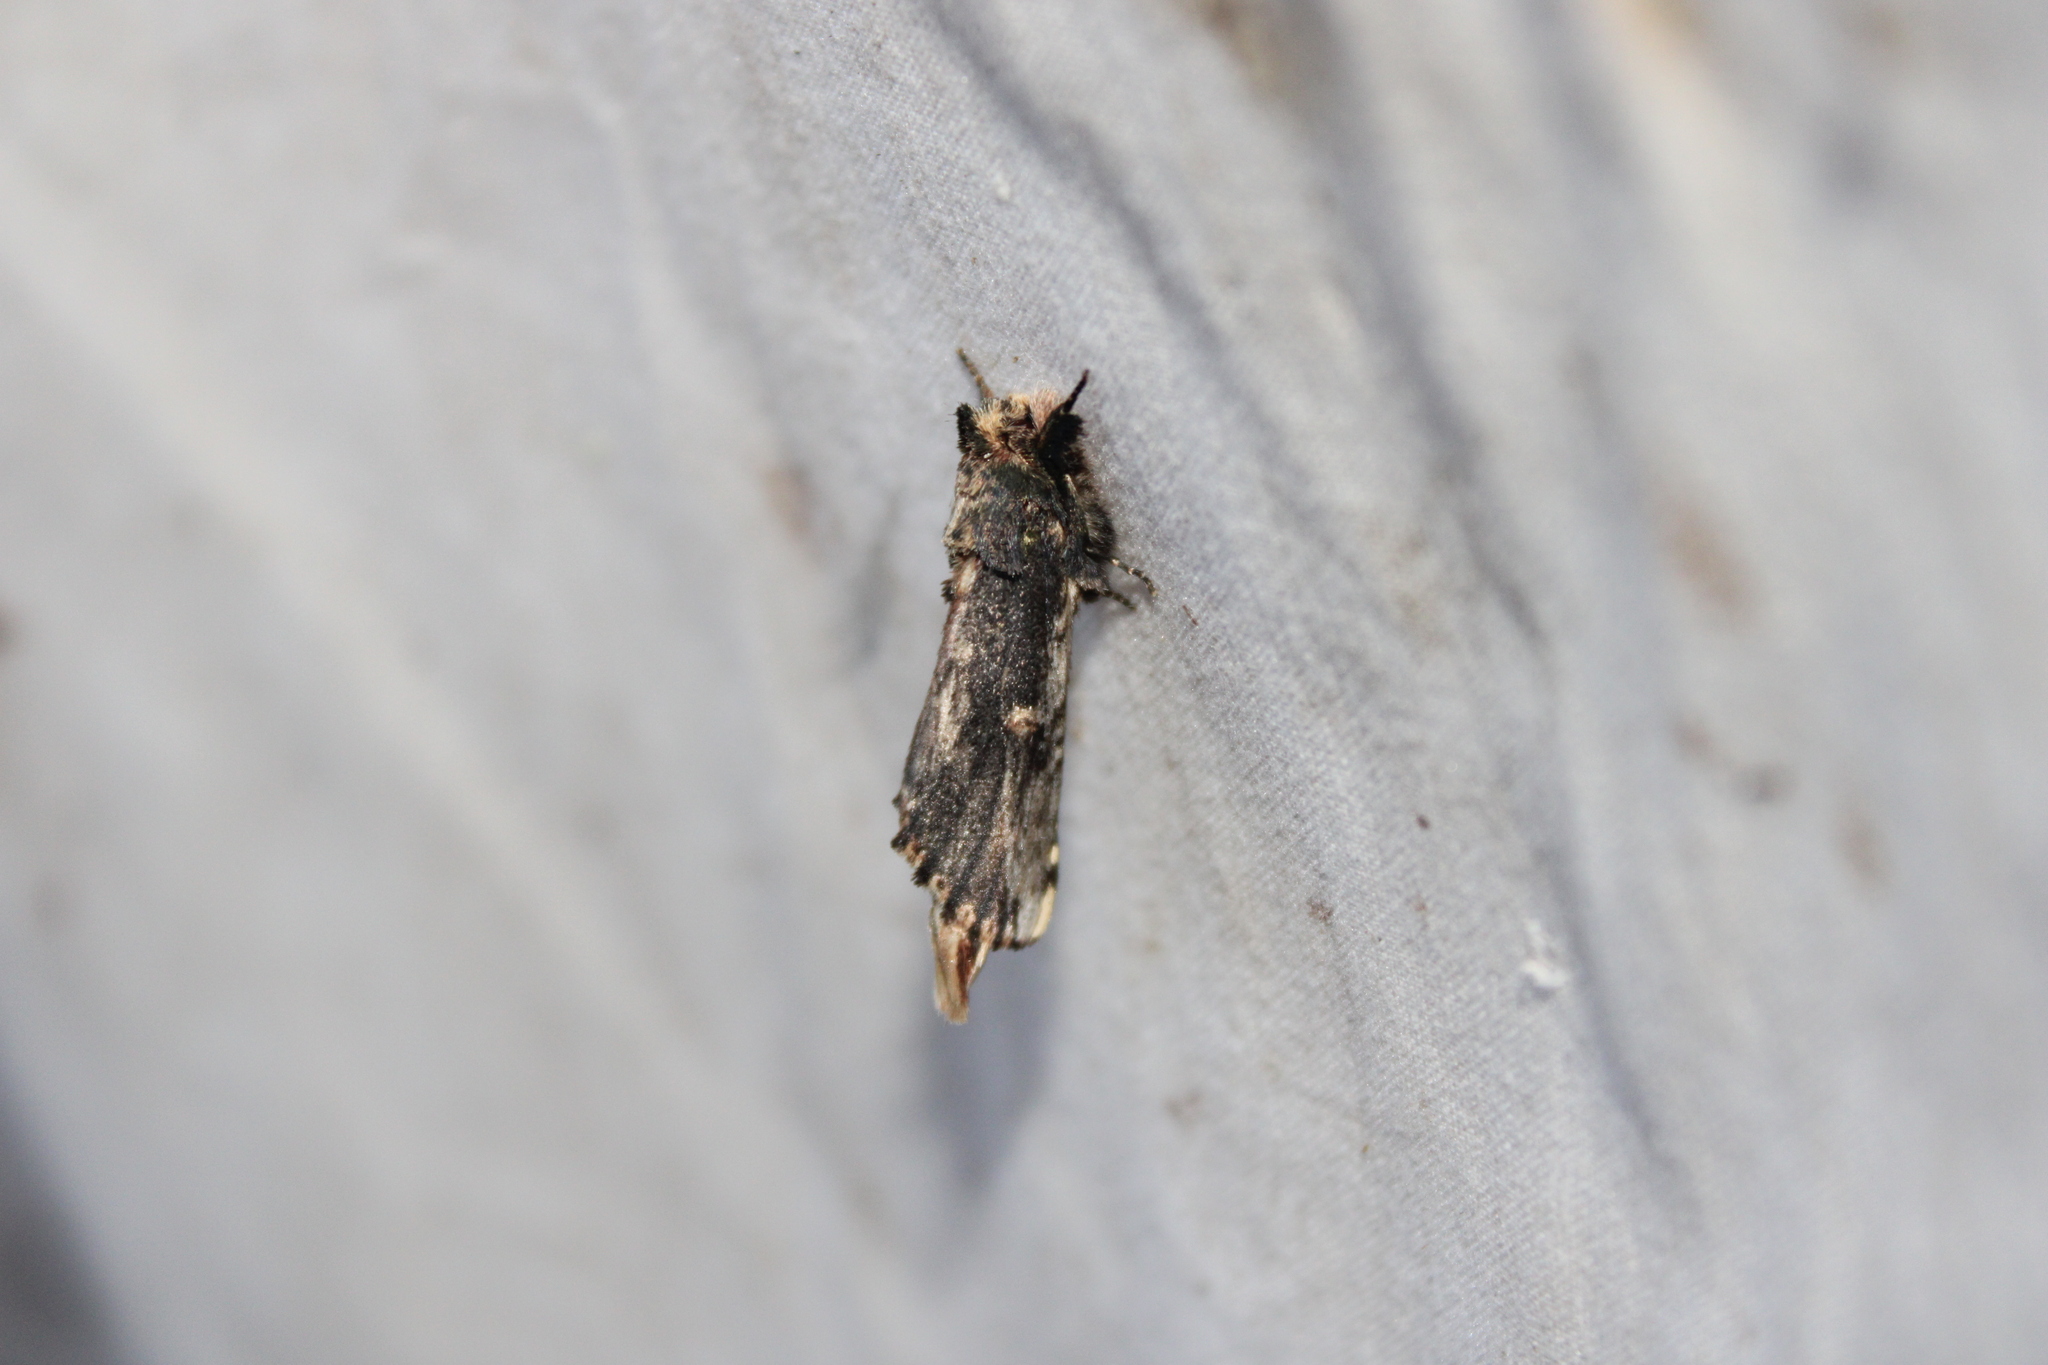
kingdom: Animalia
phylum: Arthropoda
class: Insecta
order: Lepidoptera
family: Notodontidae
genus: Schizura
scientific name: Schizura ipomaeae
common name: Morning-glory prominent
